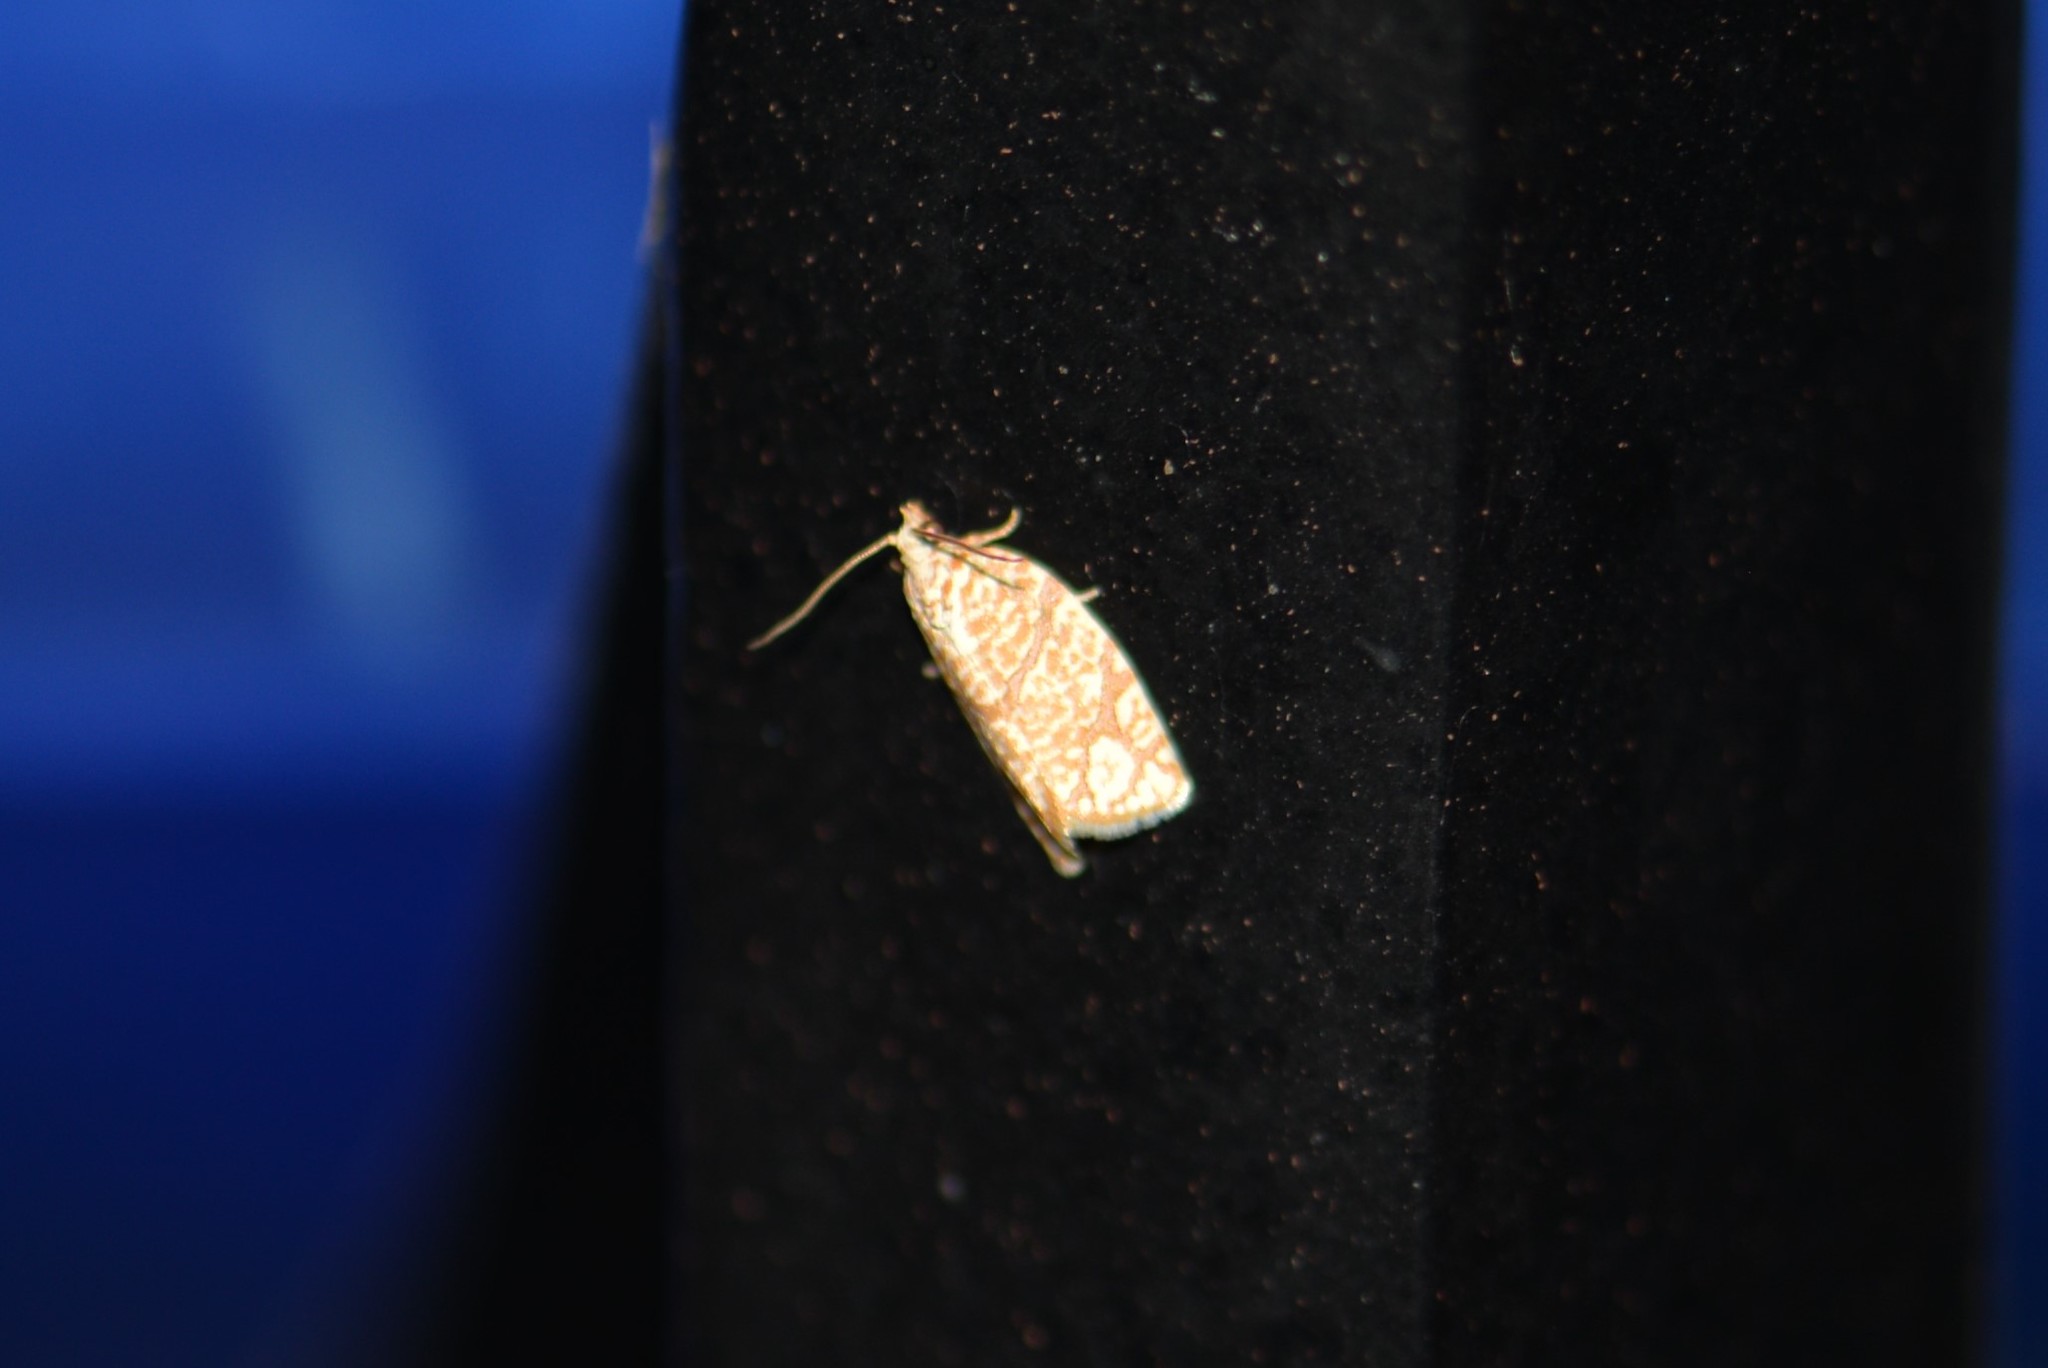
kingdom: Animalia
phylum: Arthropoda
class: Insecta
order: Lepidoptera
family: Tortricidae
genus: Argyrotaenia
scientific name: Argyrotaenia quercifoliana
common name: Yellow-winged oak leafroller moth
